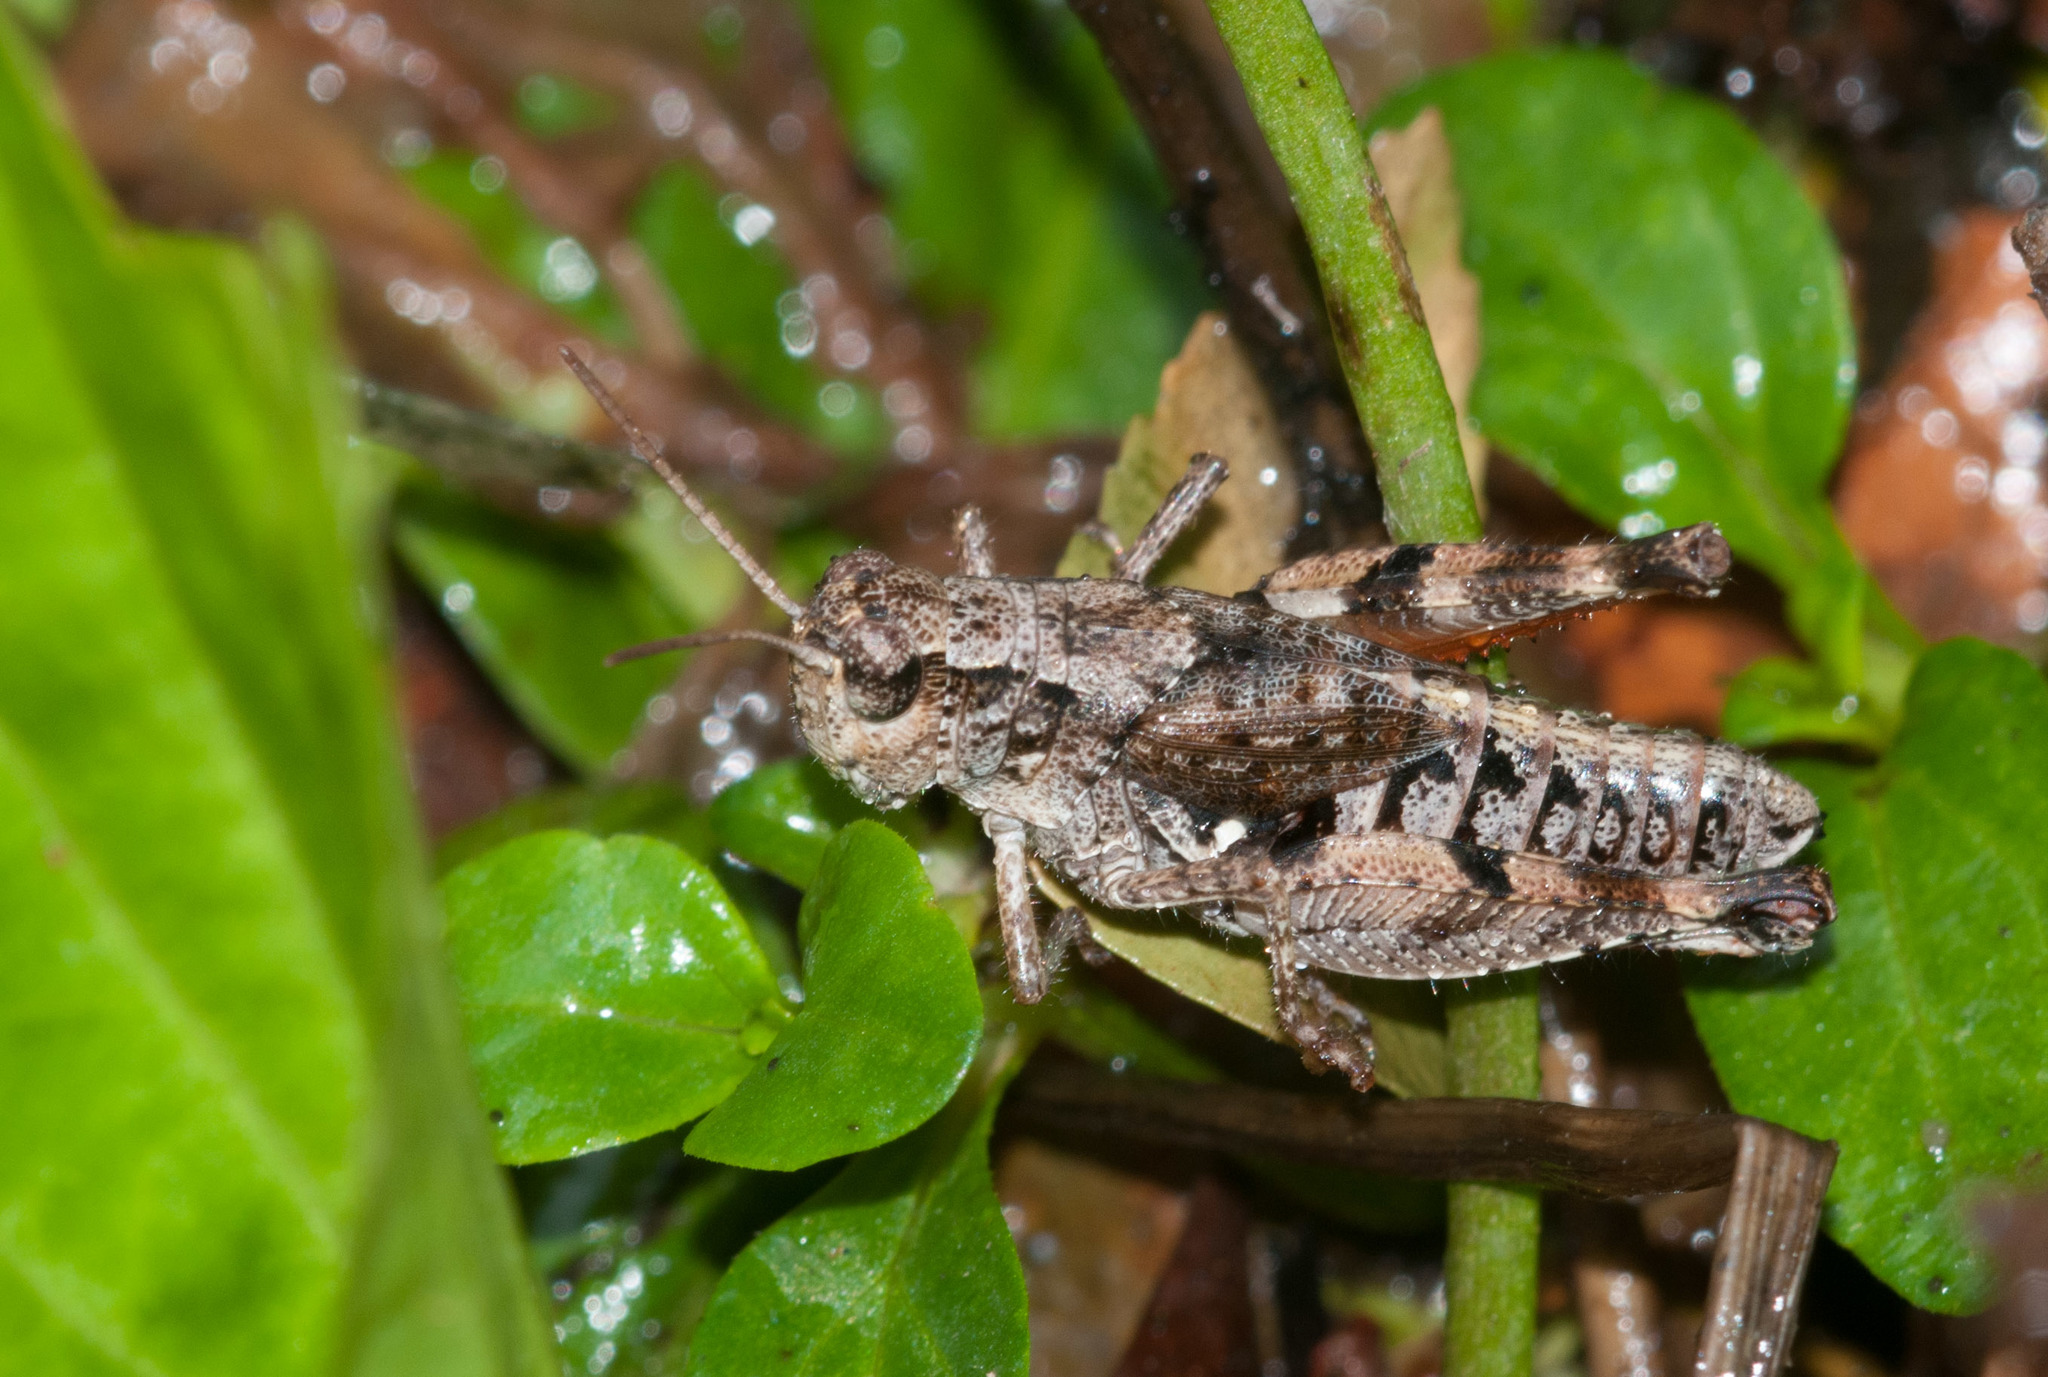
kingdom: Animalia
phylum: Arthropoda
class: Insecta
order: Orthoptera
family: Acrididae
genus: Phaulacridium
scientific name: Phaulacridium vittatum
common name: Wingless grasshopper
